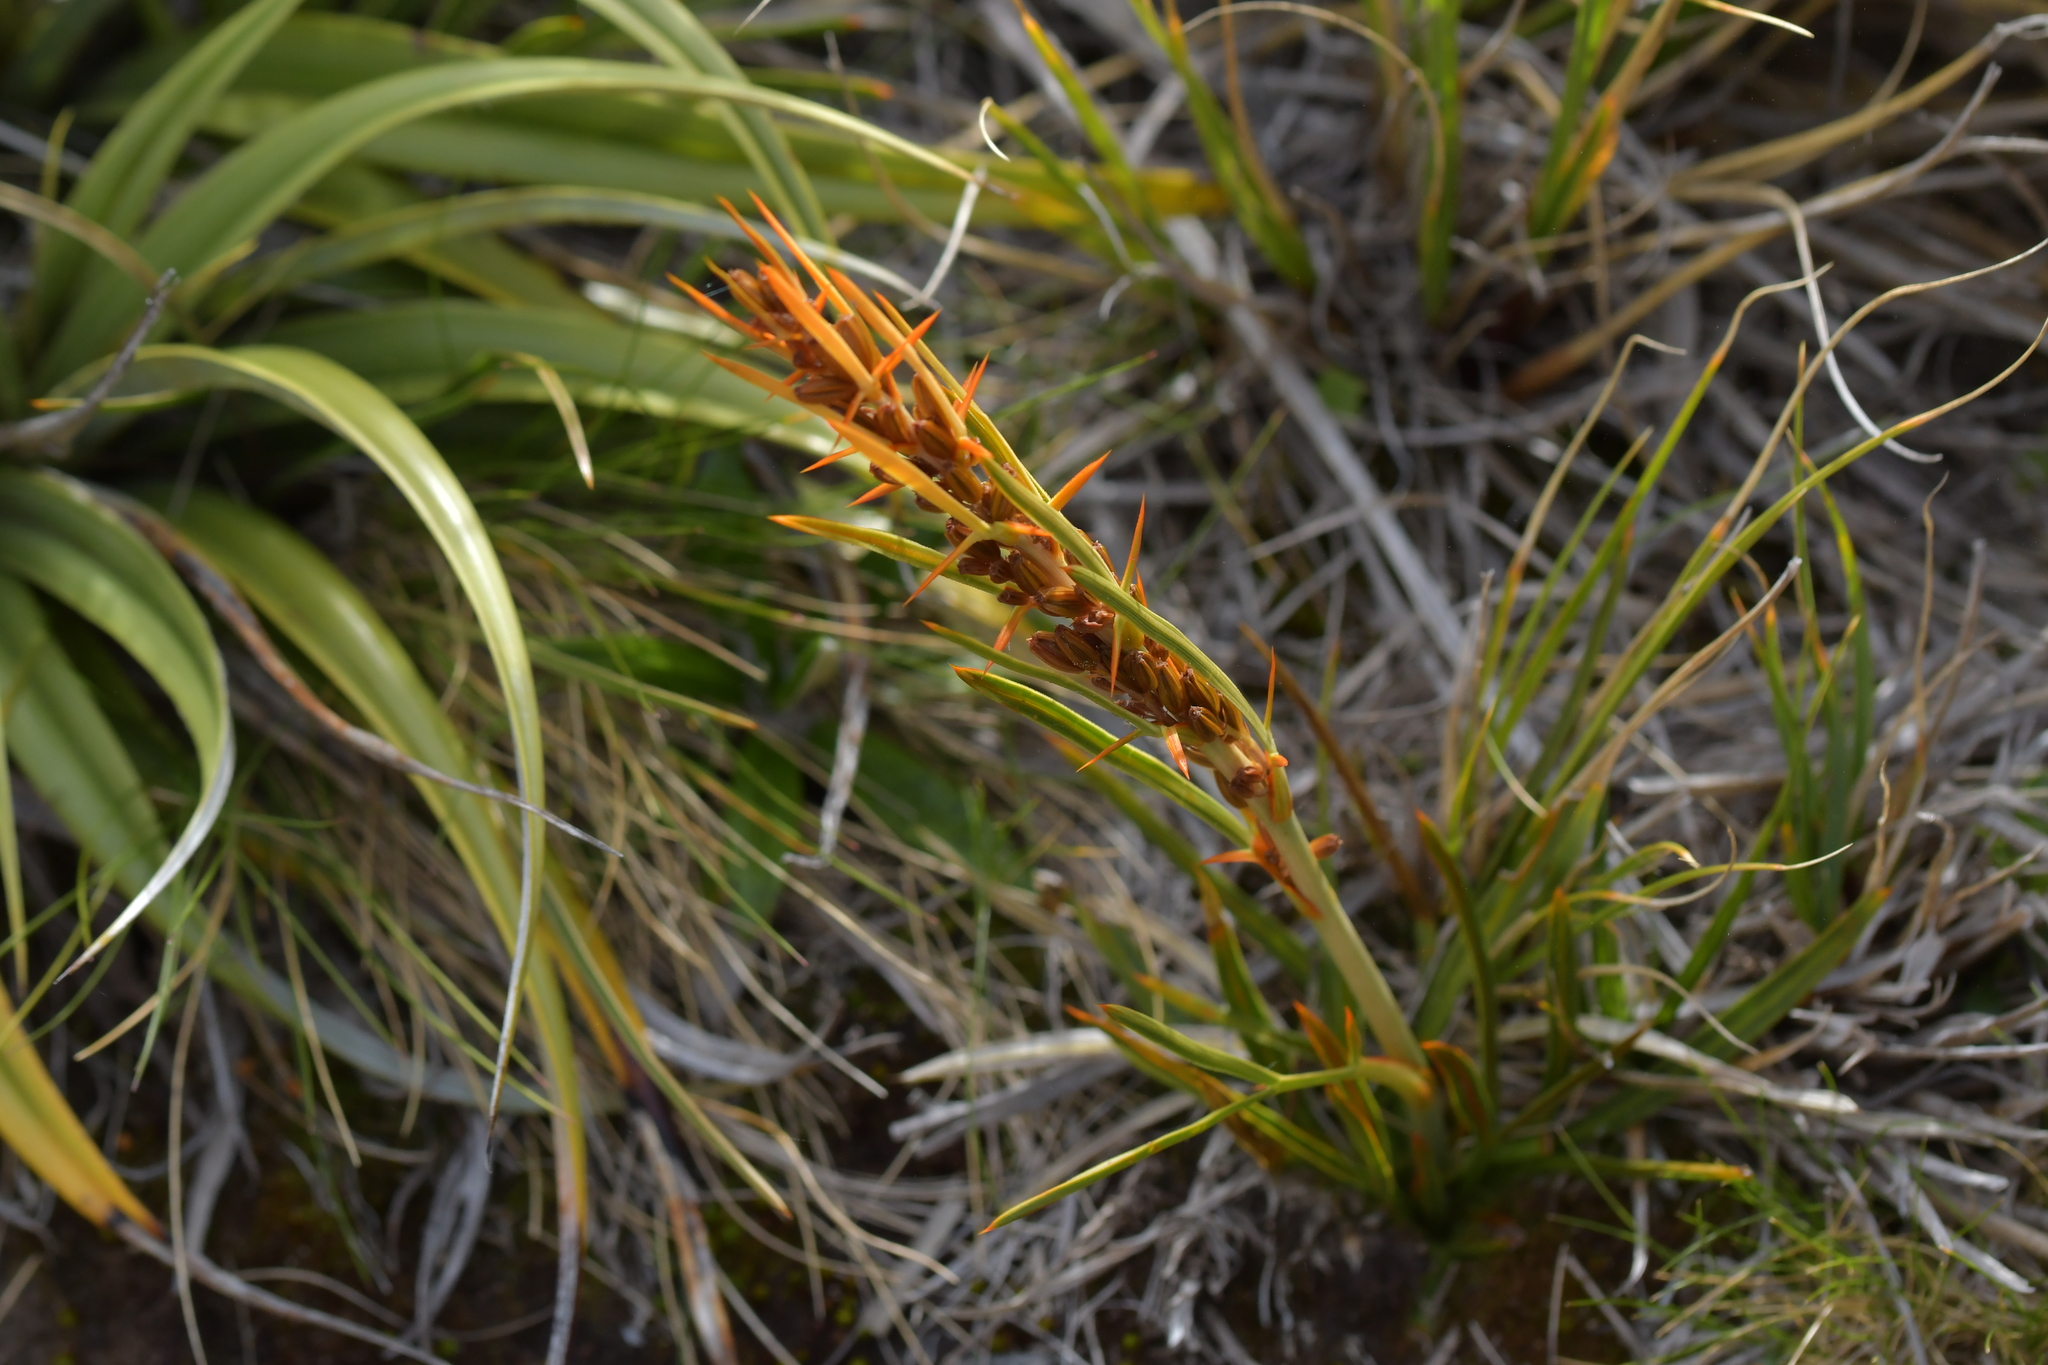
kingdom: Plantae
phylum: Tracheophyta
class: Magnoliopsida
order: Apiales
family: Apiaceae
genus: Aciphylla
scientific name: Aciphylla crenulata
